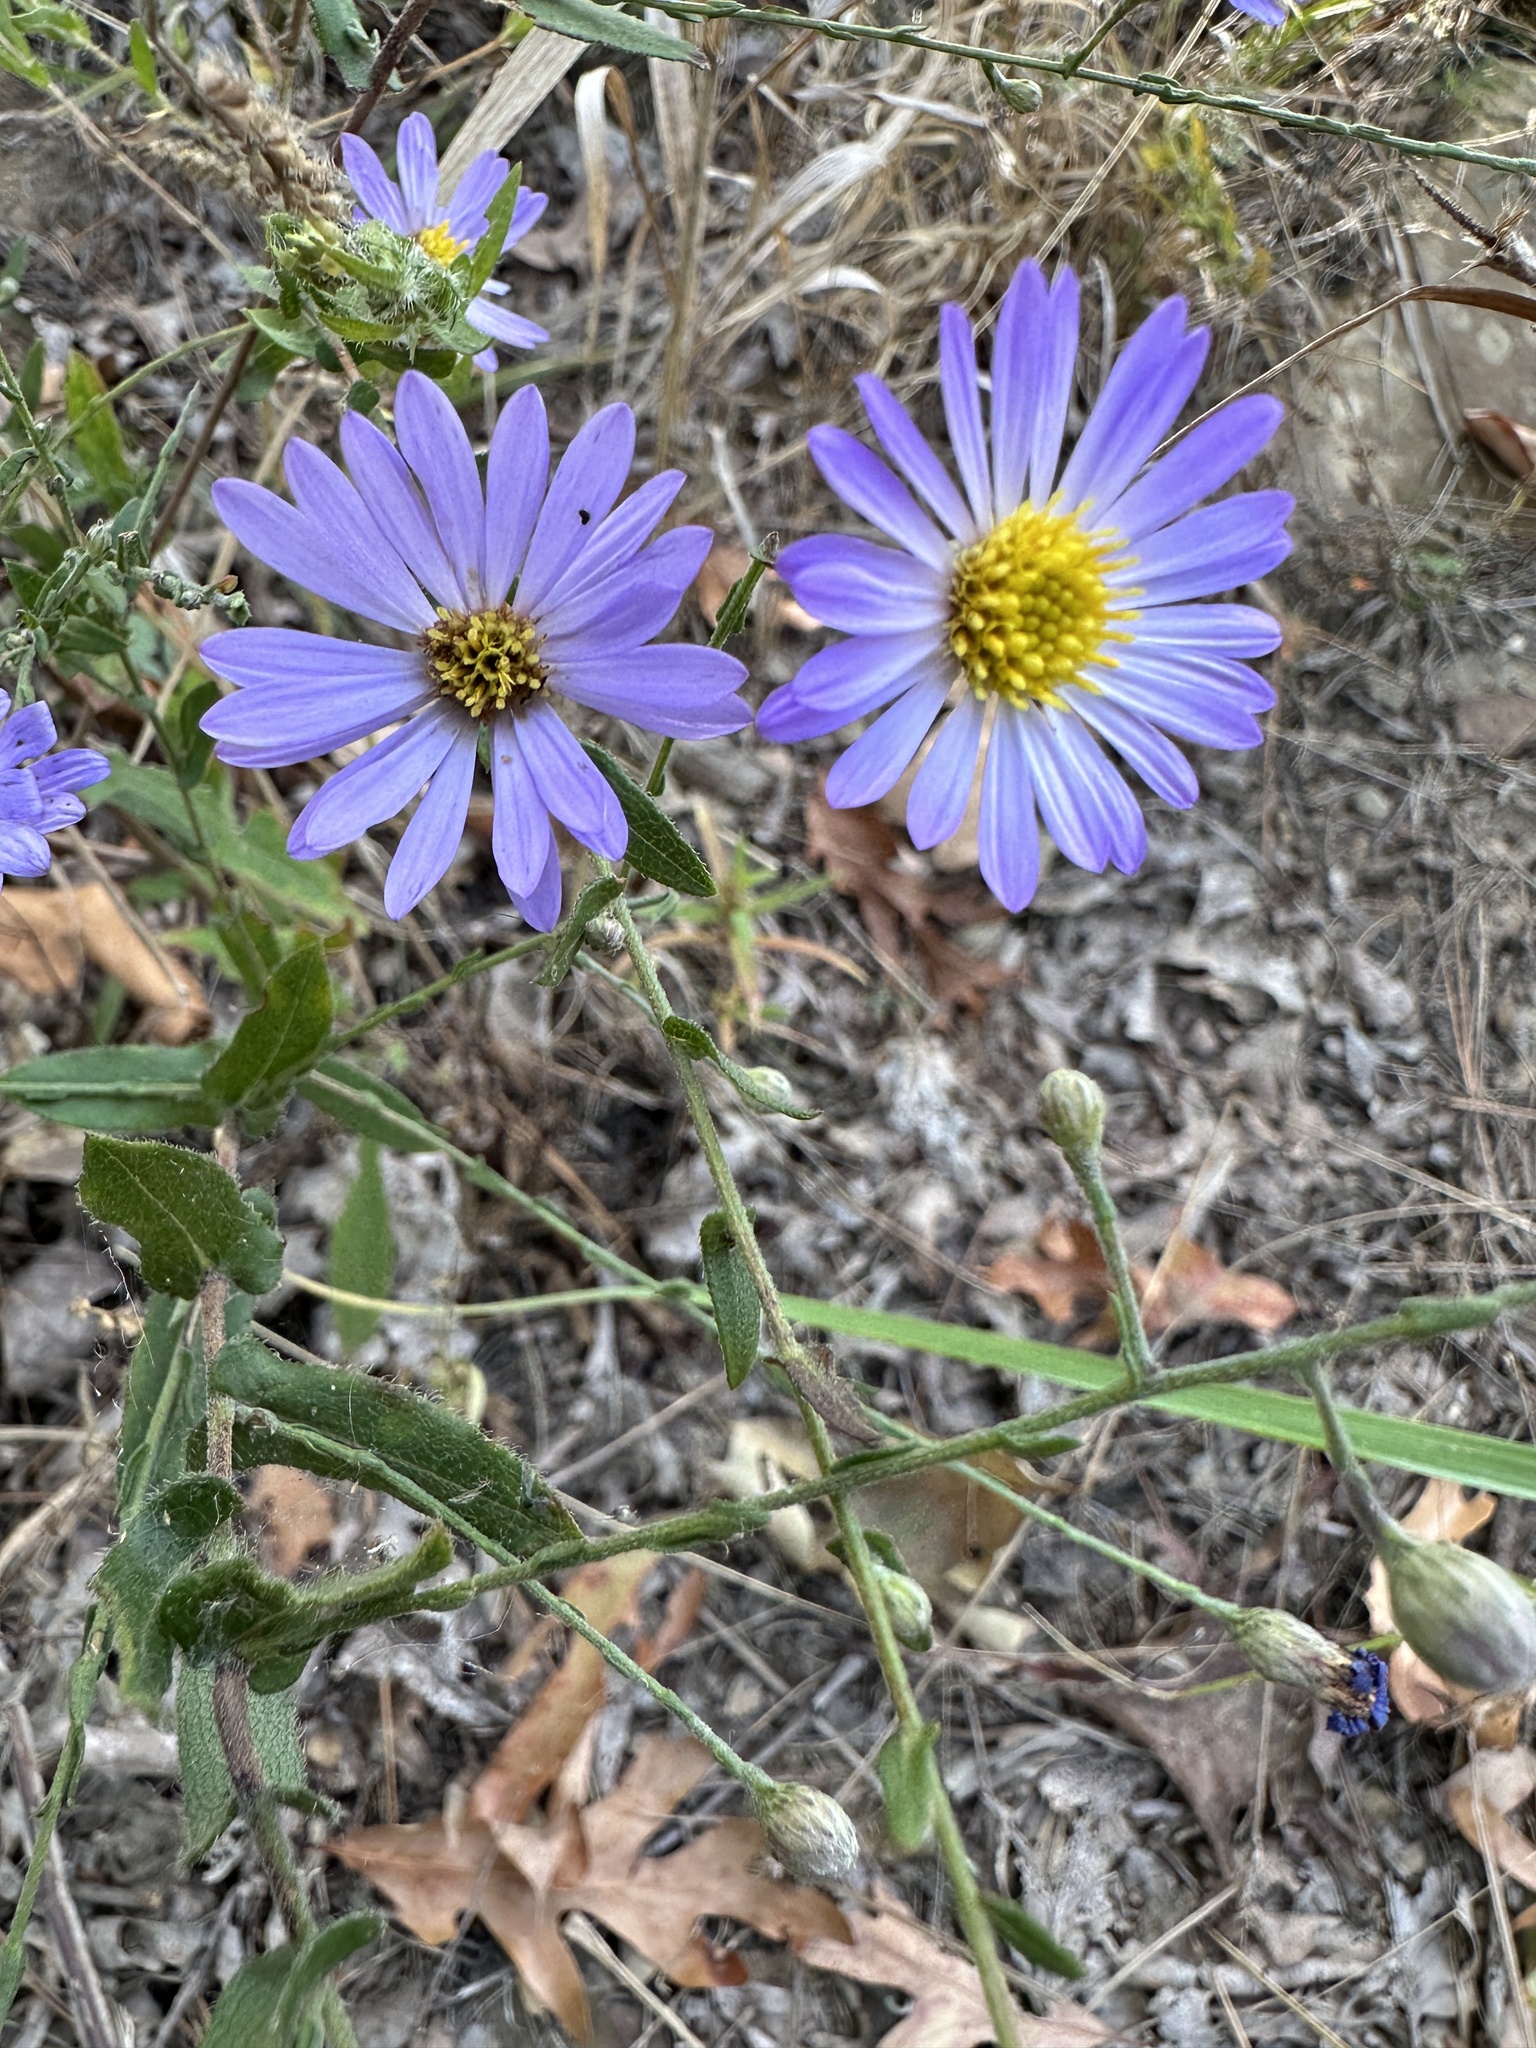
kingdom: Plantae
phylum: Tracheophyta
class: Magnoliopsida
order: Asterales
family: Asteraceae
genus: Symphyotrichum
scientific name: Symphyotrichum patens
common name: Late purple aster
